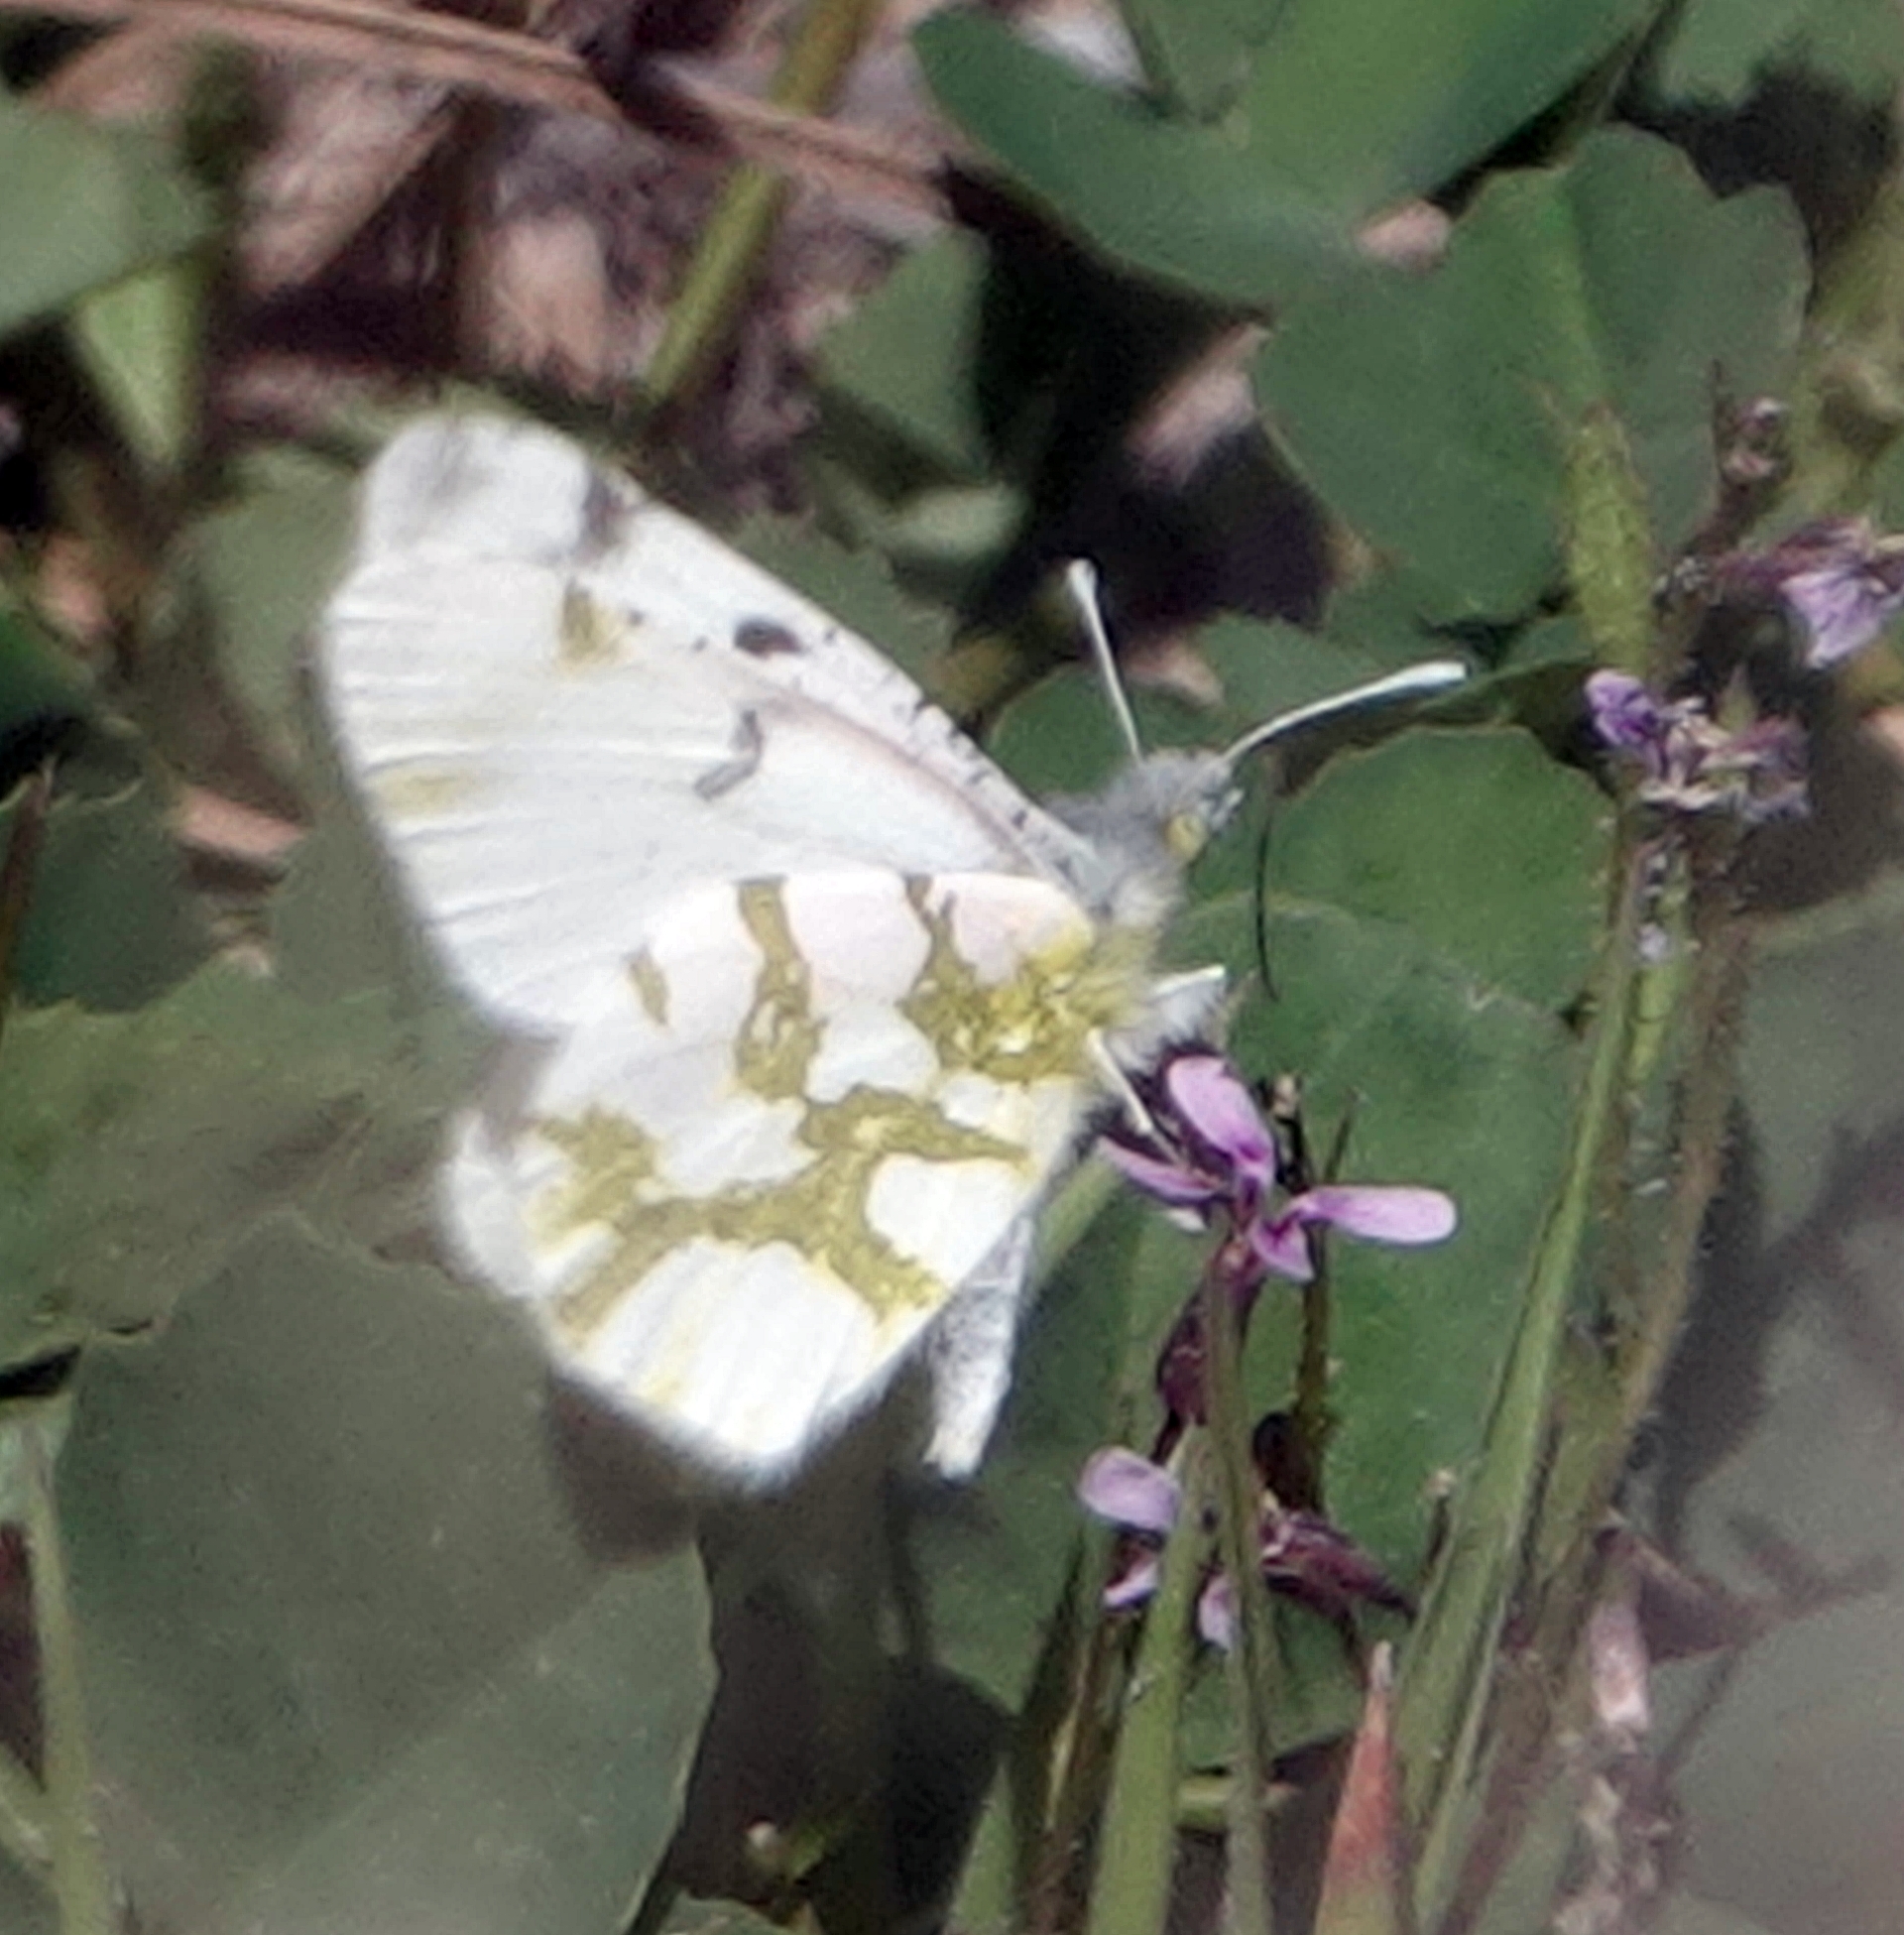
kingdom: Animalia
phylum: Arthropoda
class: Insecta
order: Lepidoptera
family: Pieridae
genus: Euchloe
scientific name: Euchloe olympia
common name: Olympia
